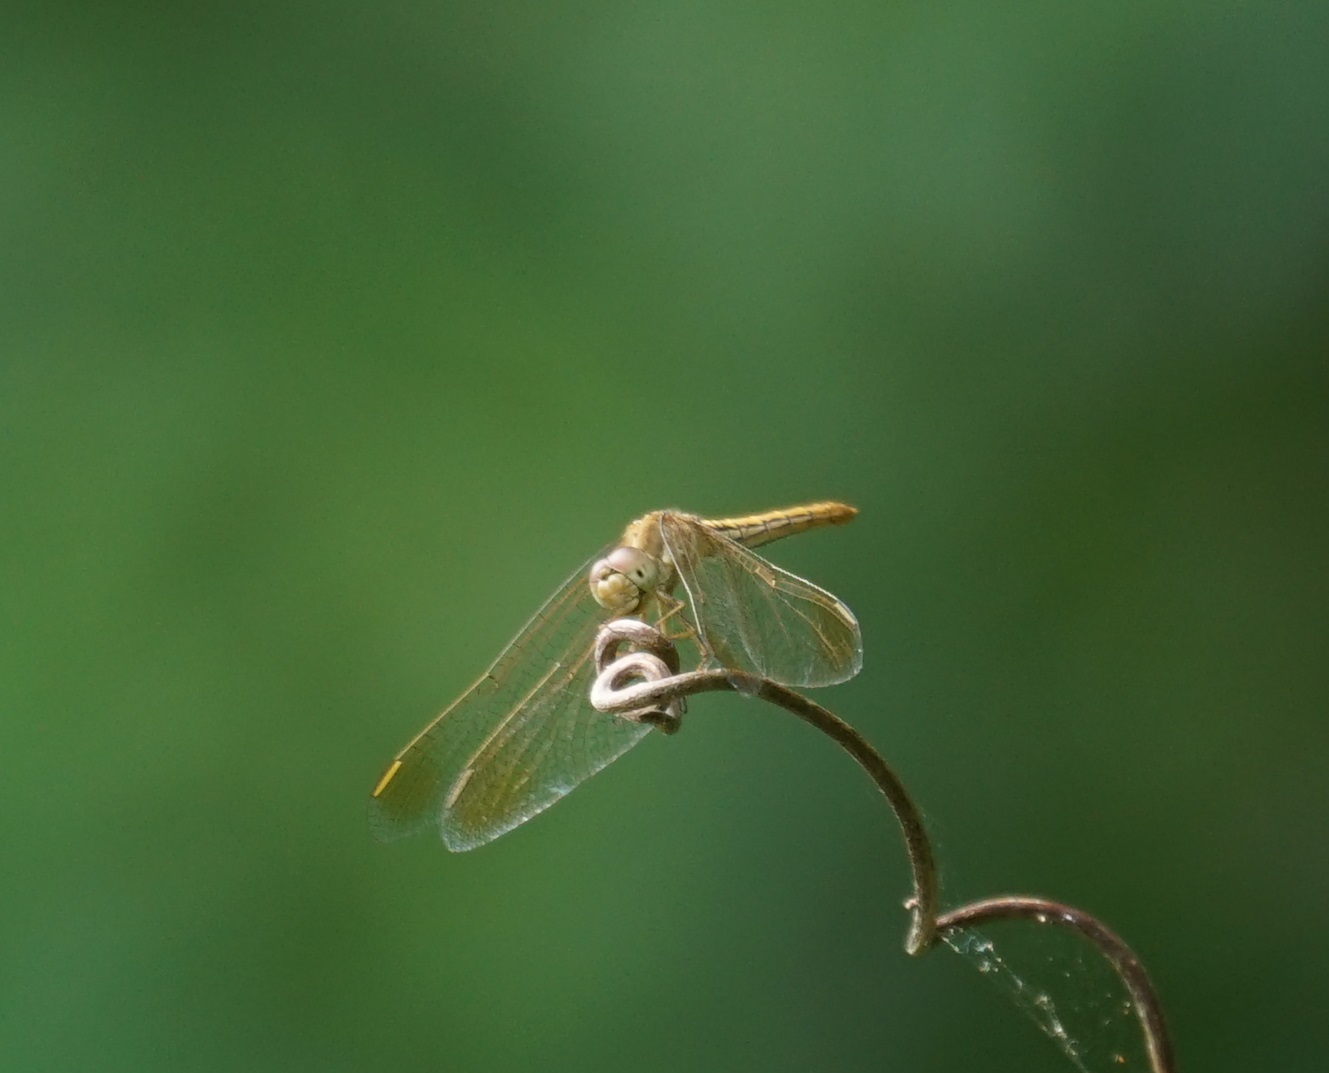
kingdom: Animalia
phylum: Arthropoda
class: Insecta
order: Odonata
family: Libellulidae
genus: Diplacodes
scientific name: Diplacodes haematodes
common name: Scarlet percher
